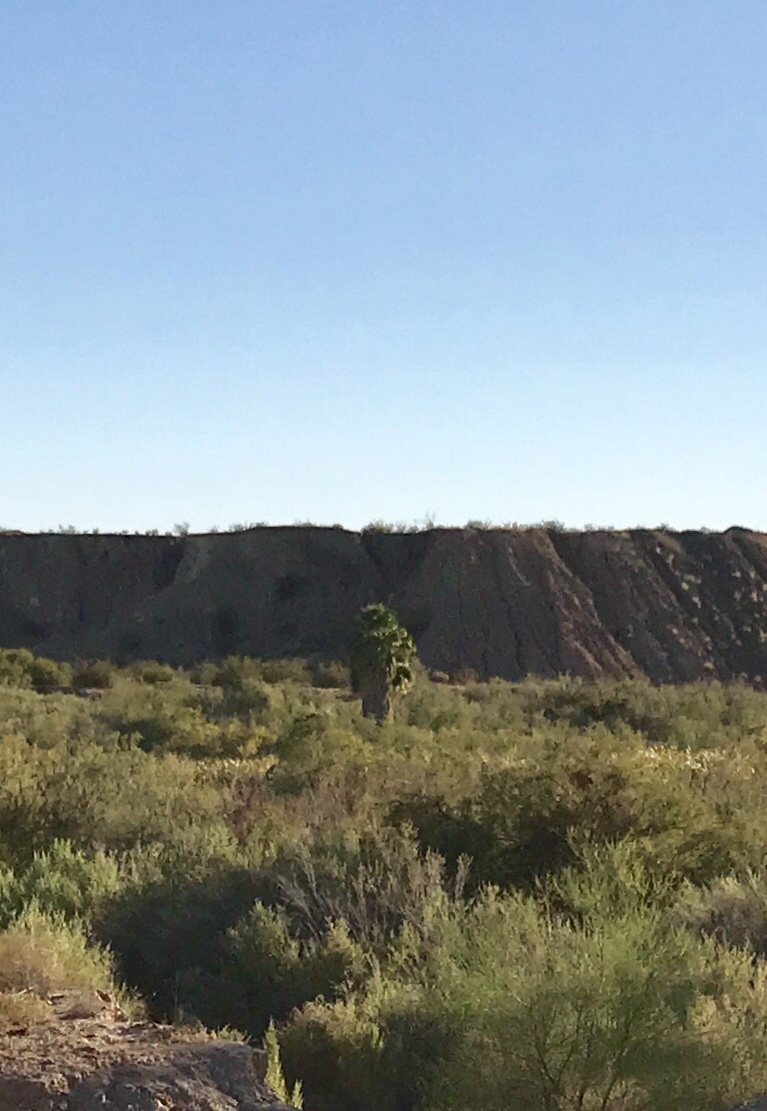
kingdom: Plantae
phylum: Tracheophyta
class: Liliopsida
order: Arecales
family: Arecaceae
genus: Washingtonia
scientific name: Washingtonia filifera
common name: California fan palm
